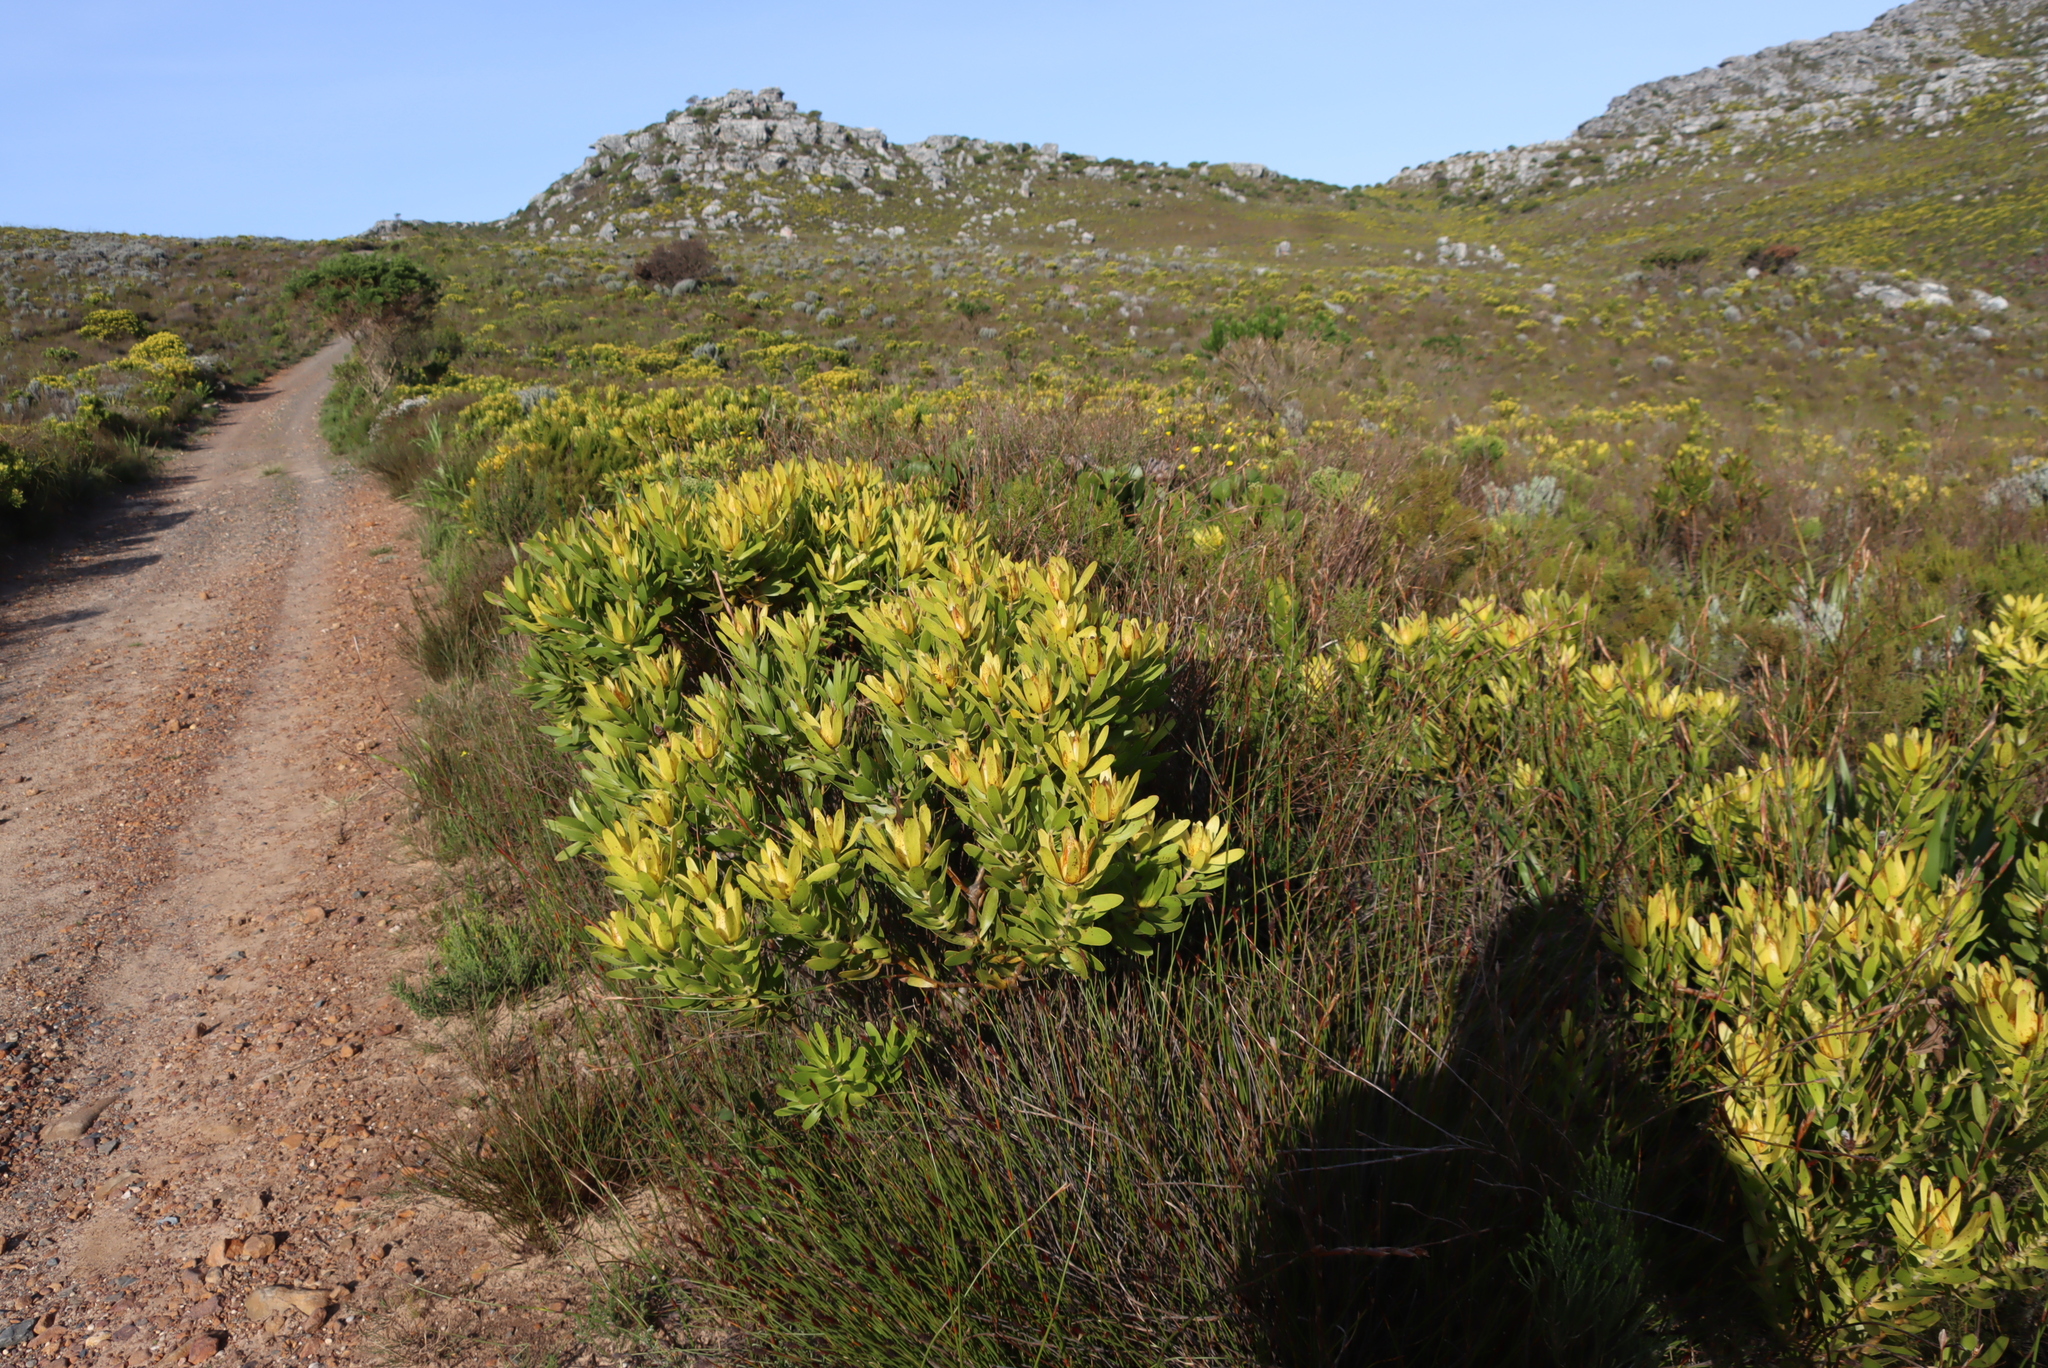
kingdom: Plantae
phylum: Tracheophyta
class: Magnoliopsida
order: Proteales
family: Proteaceae
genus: Leucadendron
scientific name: Leucadendron laureolum
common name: Golden sunshinebush
